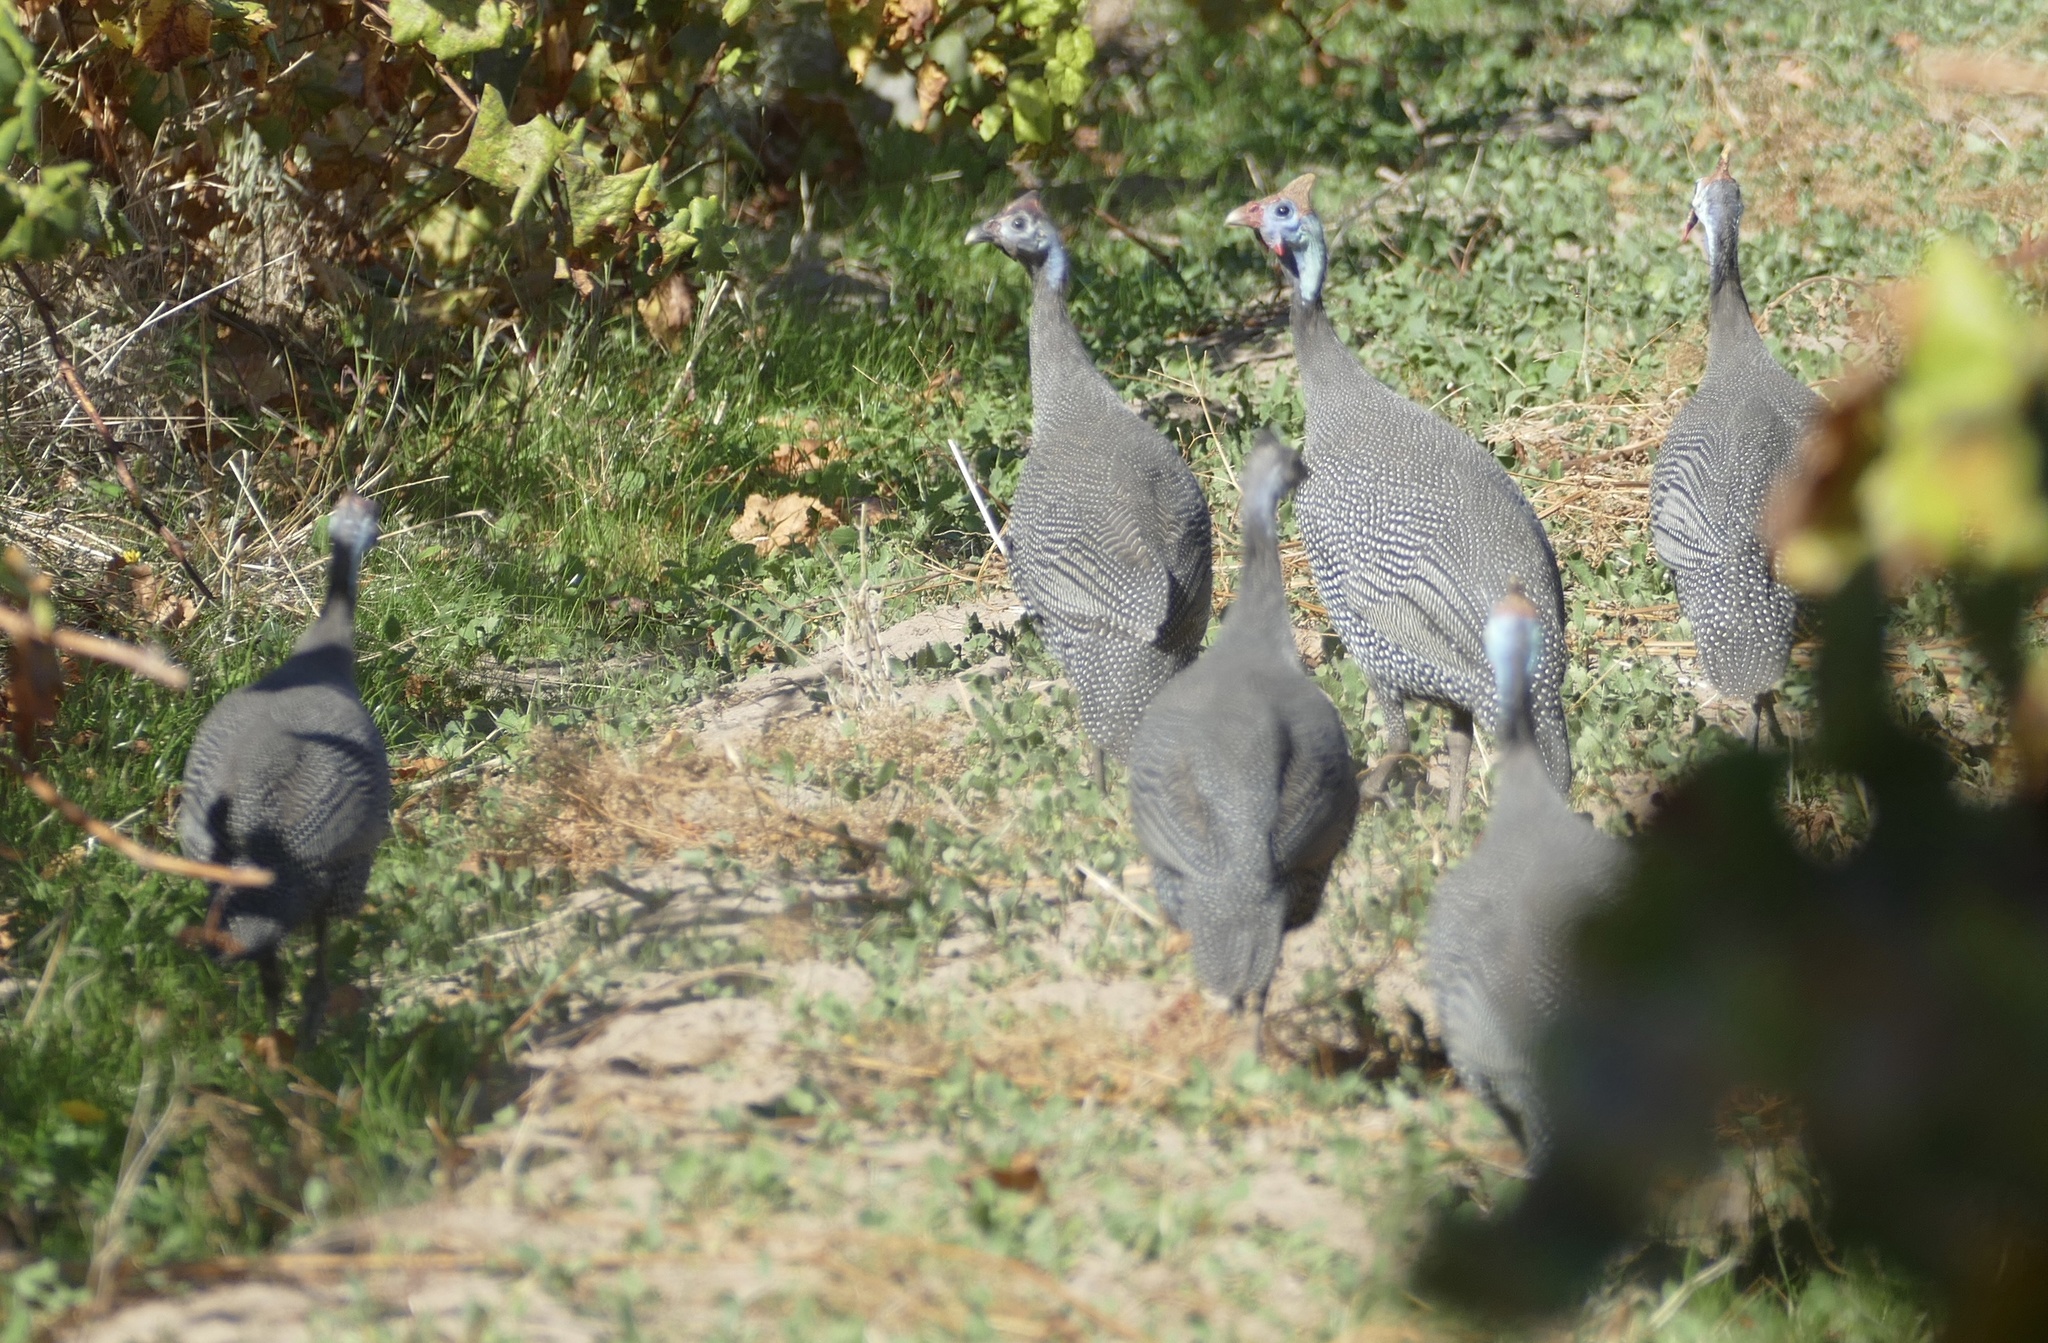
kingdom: Animalia
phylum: Chordata
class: Aves
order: Galliformes
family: Numididae
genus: Numida
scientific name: Numida meleagris
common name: Helmeted guineafowl
